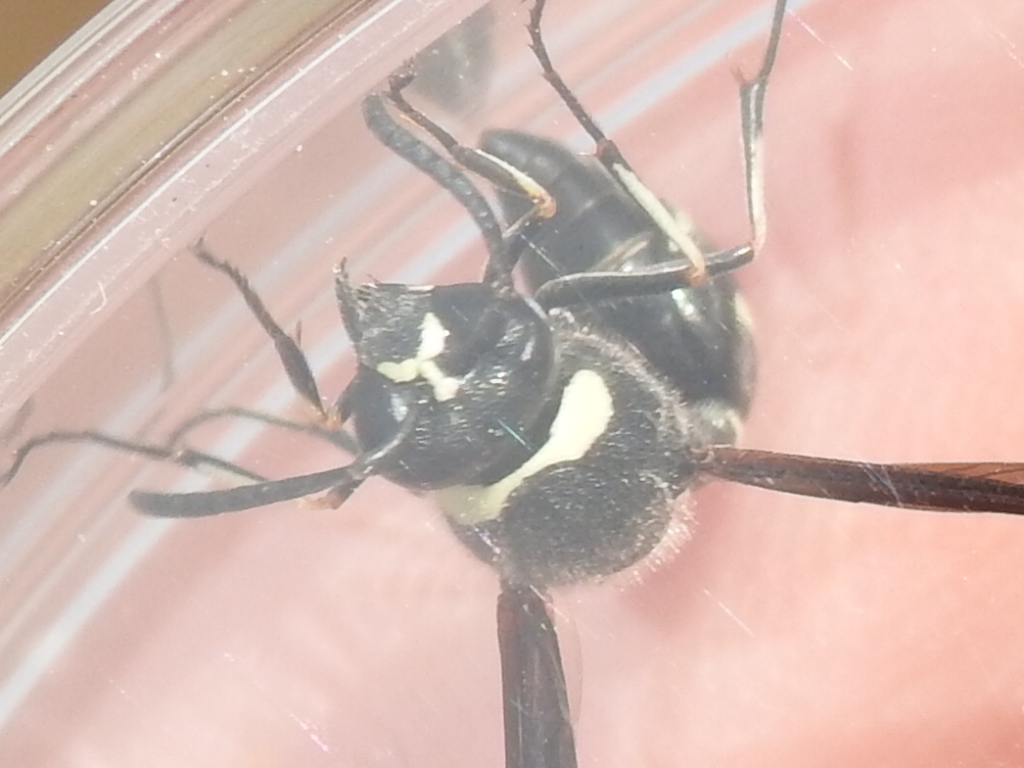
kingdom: Animalia
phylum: Arthropoda
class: Insecta
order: Hymenoptera
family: Vespidae
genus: Eumenes
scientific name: Eumenes fraternus
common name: Fraternal potter wasp
